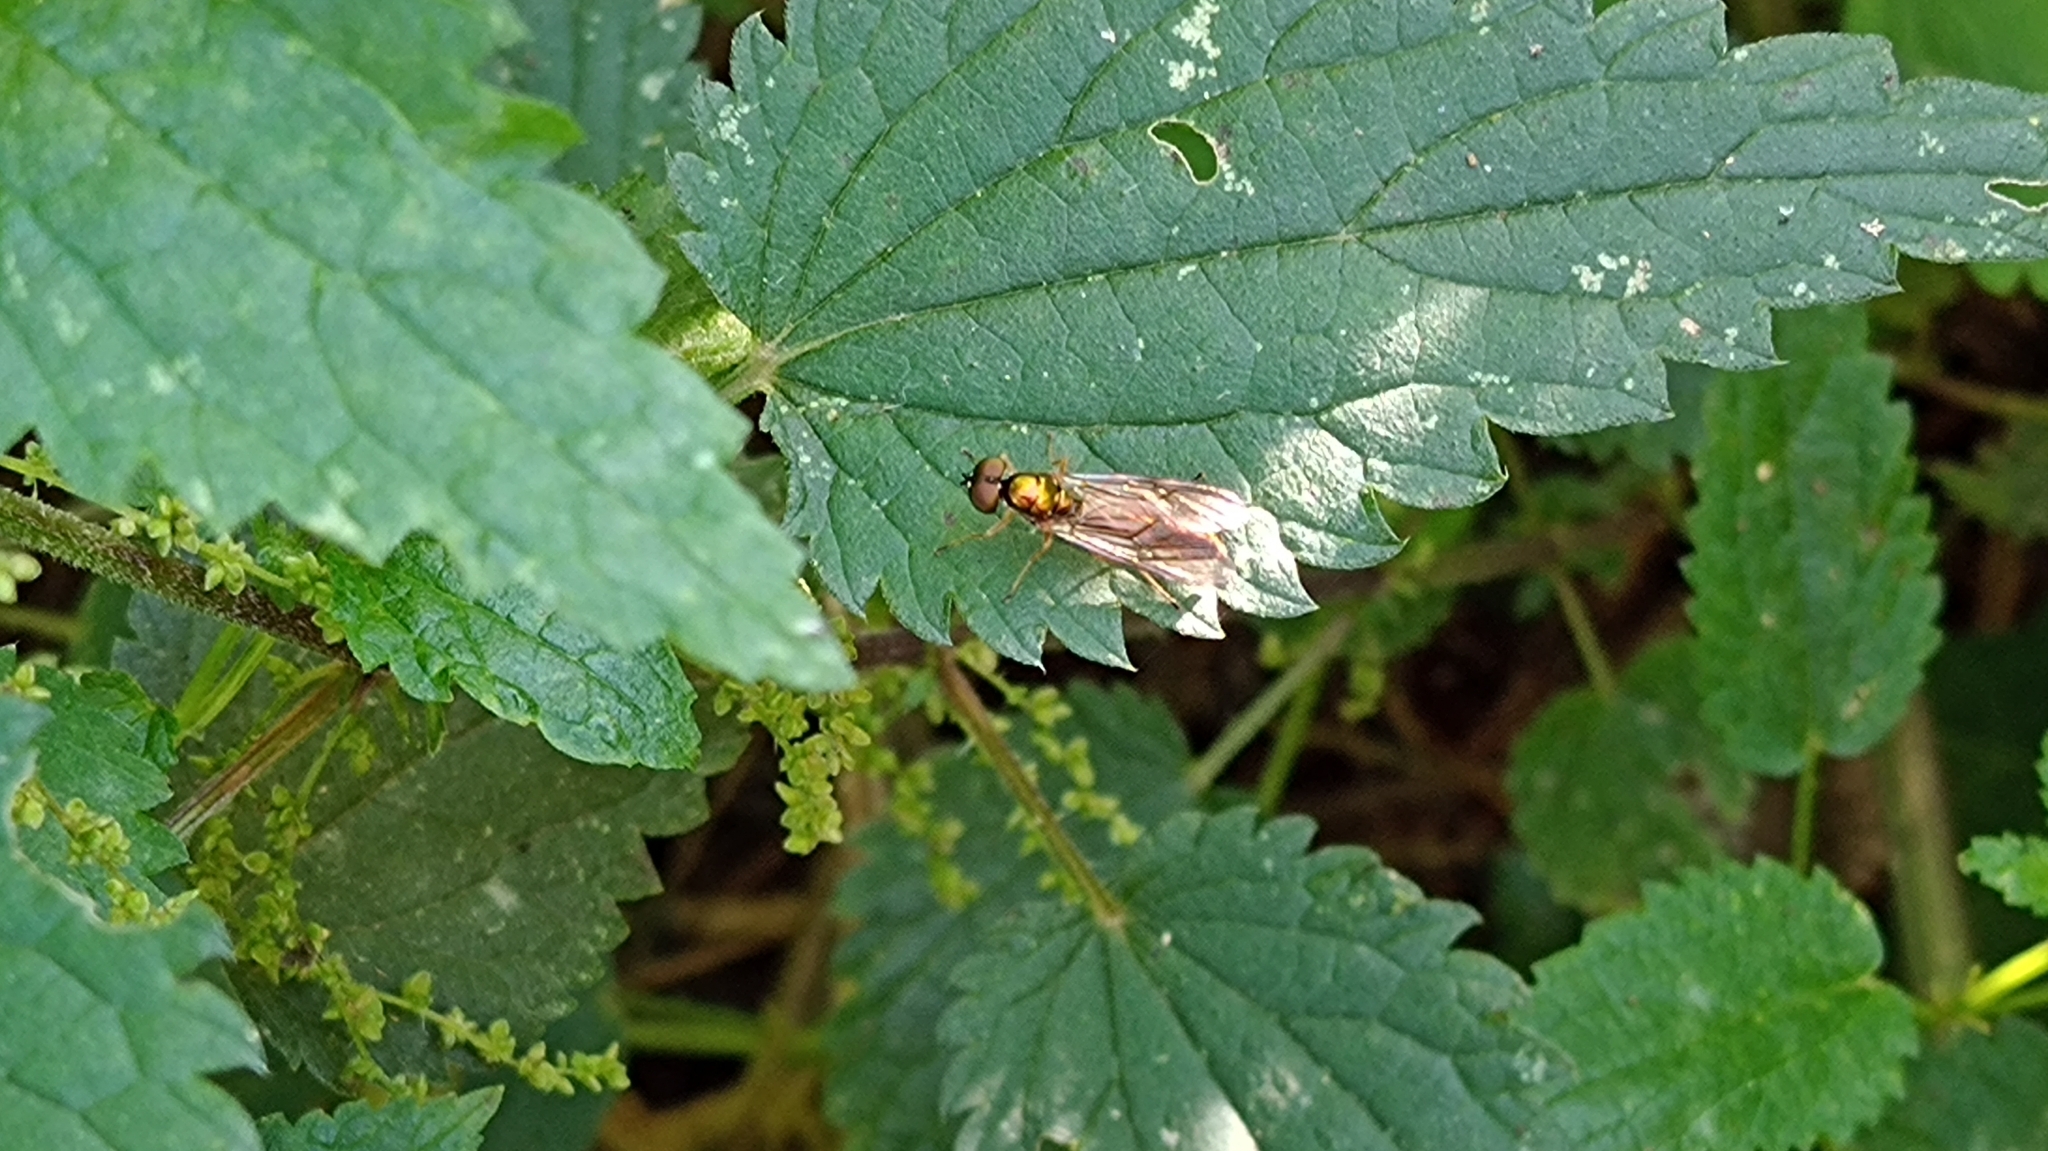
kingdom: Animalia
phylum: Arthropoda
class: Insecta
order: Diptera
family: Stratiomyidae
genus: Sargus
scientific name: Sargus bipunctatus
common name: Twin-spot centurion
